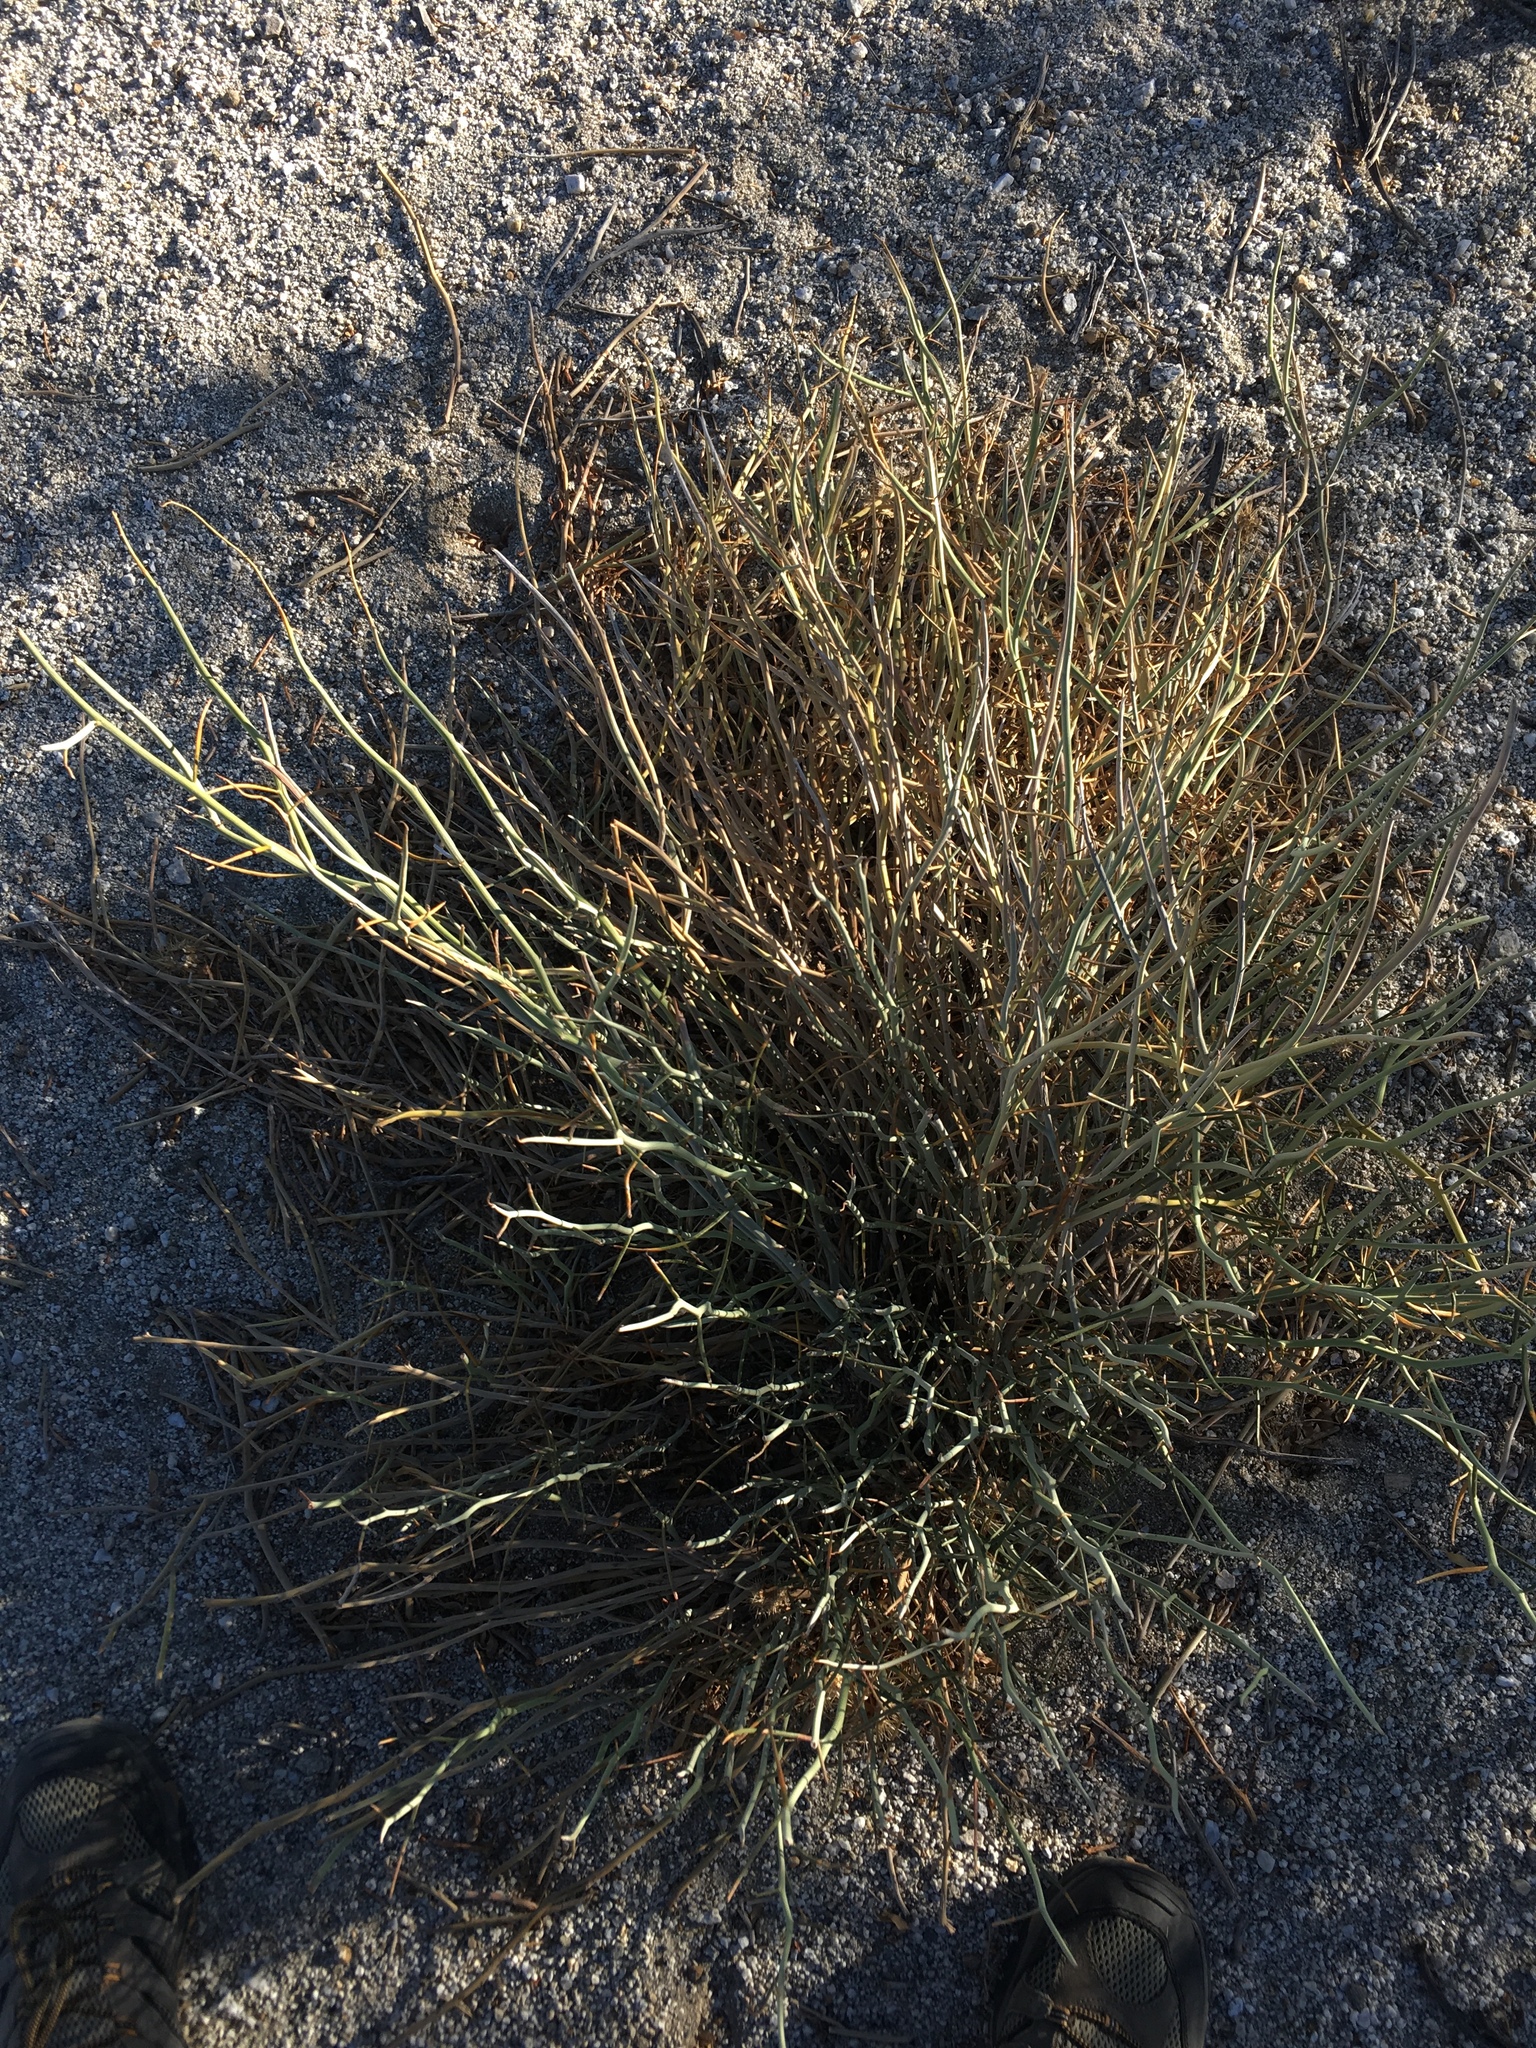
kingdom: Plantae
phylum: Tracheophyta
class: Magnoliopsida
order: Fabales
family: Fabaceae
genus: Senna
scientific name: Senna armata
